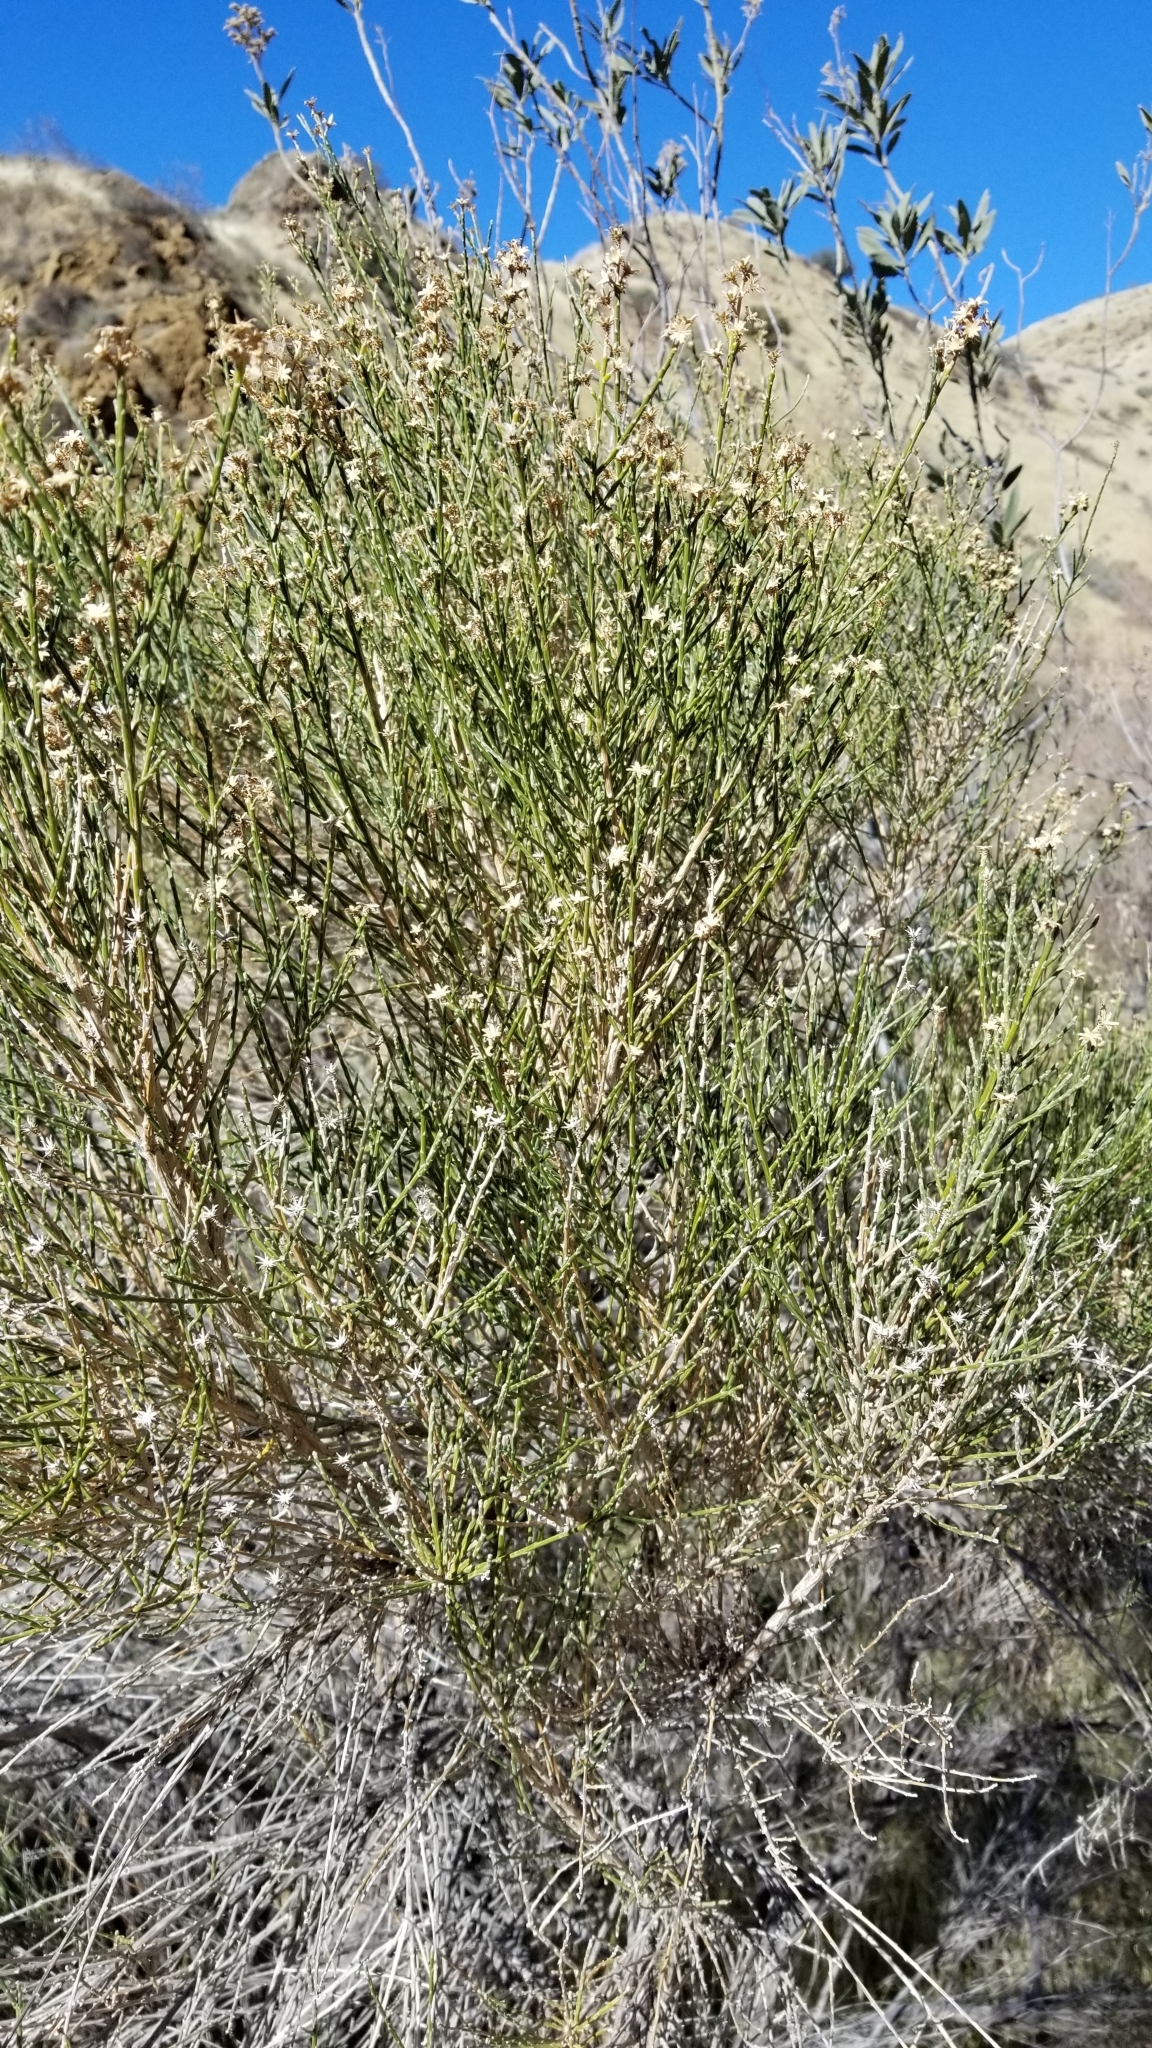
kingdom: Plantae
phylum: Tracheophyta
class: Magnoliopsida
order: Asterales
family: Asteraceae
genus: Lepidospartum
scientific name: Lepidospartum squamatum
